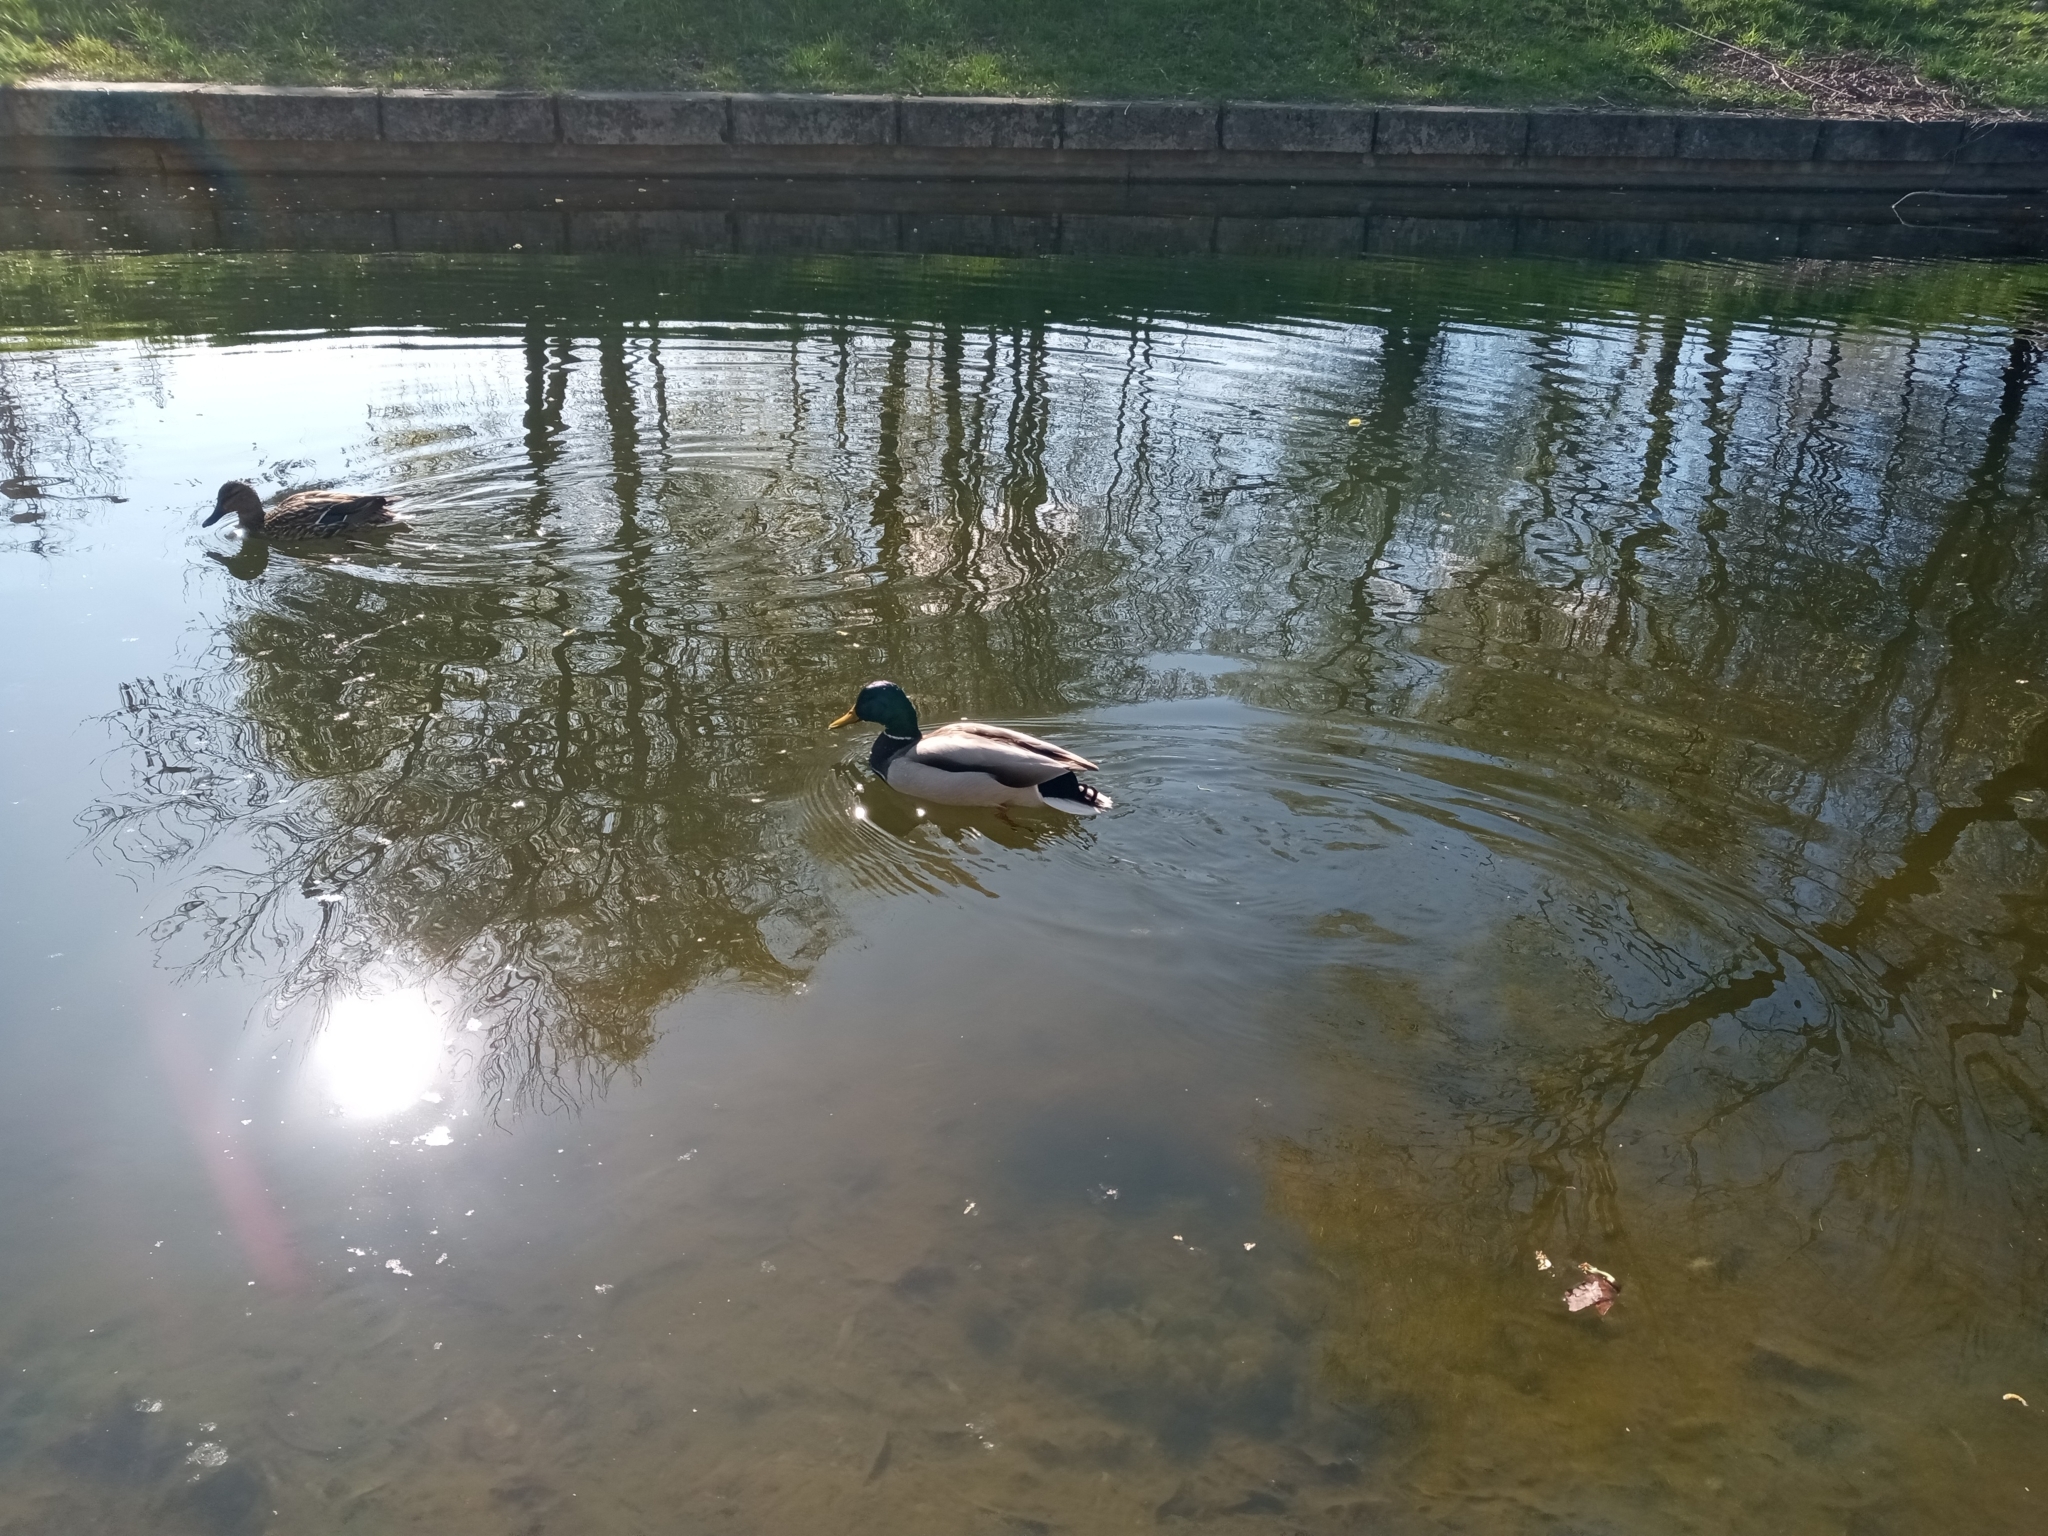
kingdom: Animalia
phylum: Chordata
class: Aves
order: Anseriformes
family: Anatidae
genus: Anas
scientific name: Anas platyrhynchos
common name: Mallard
